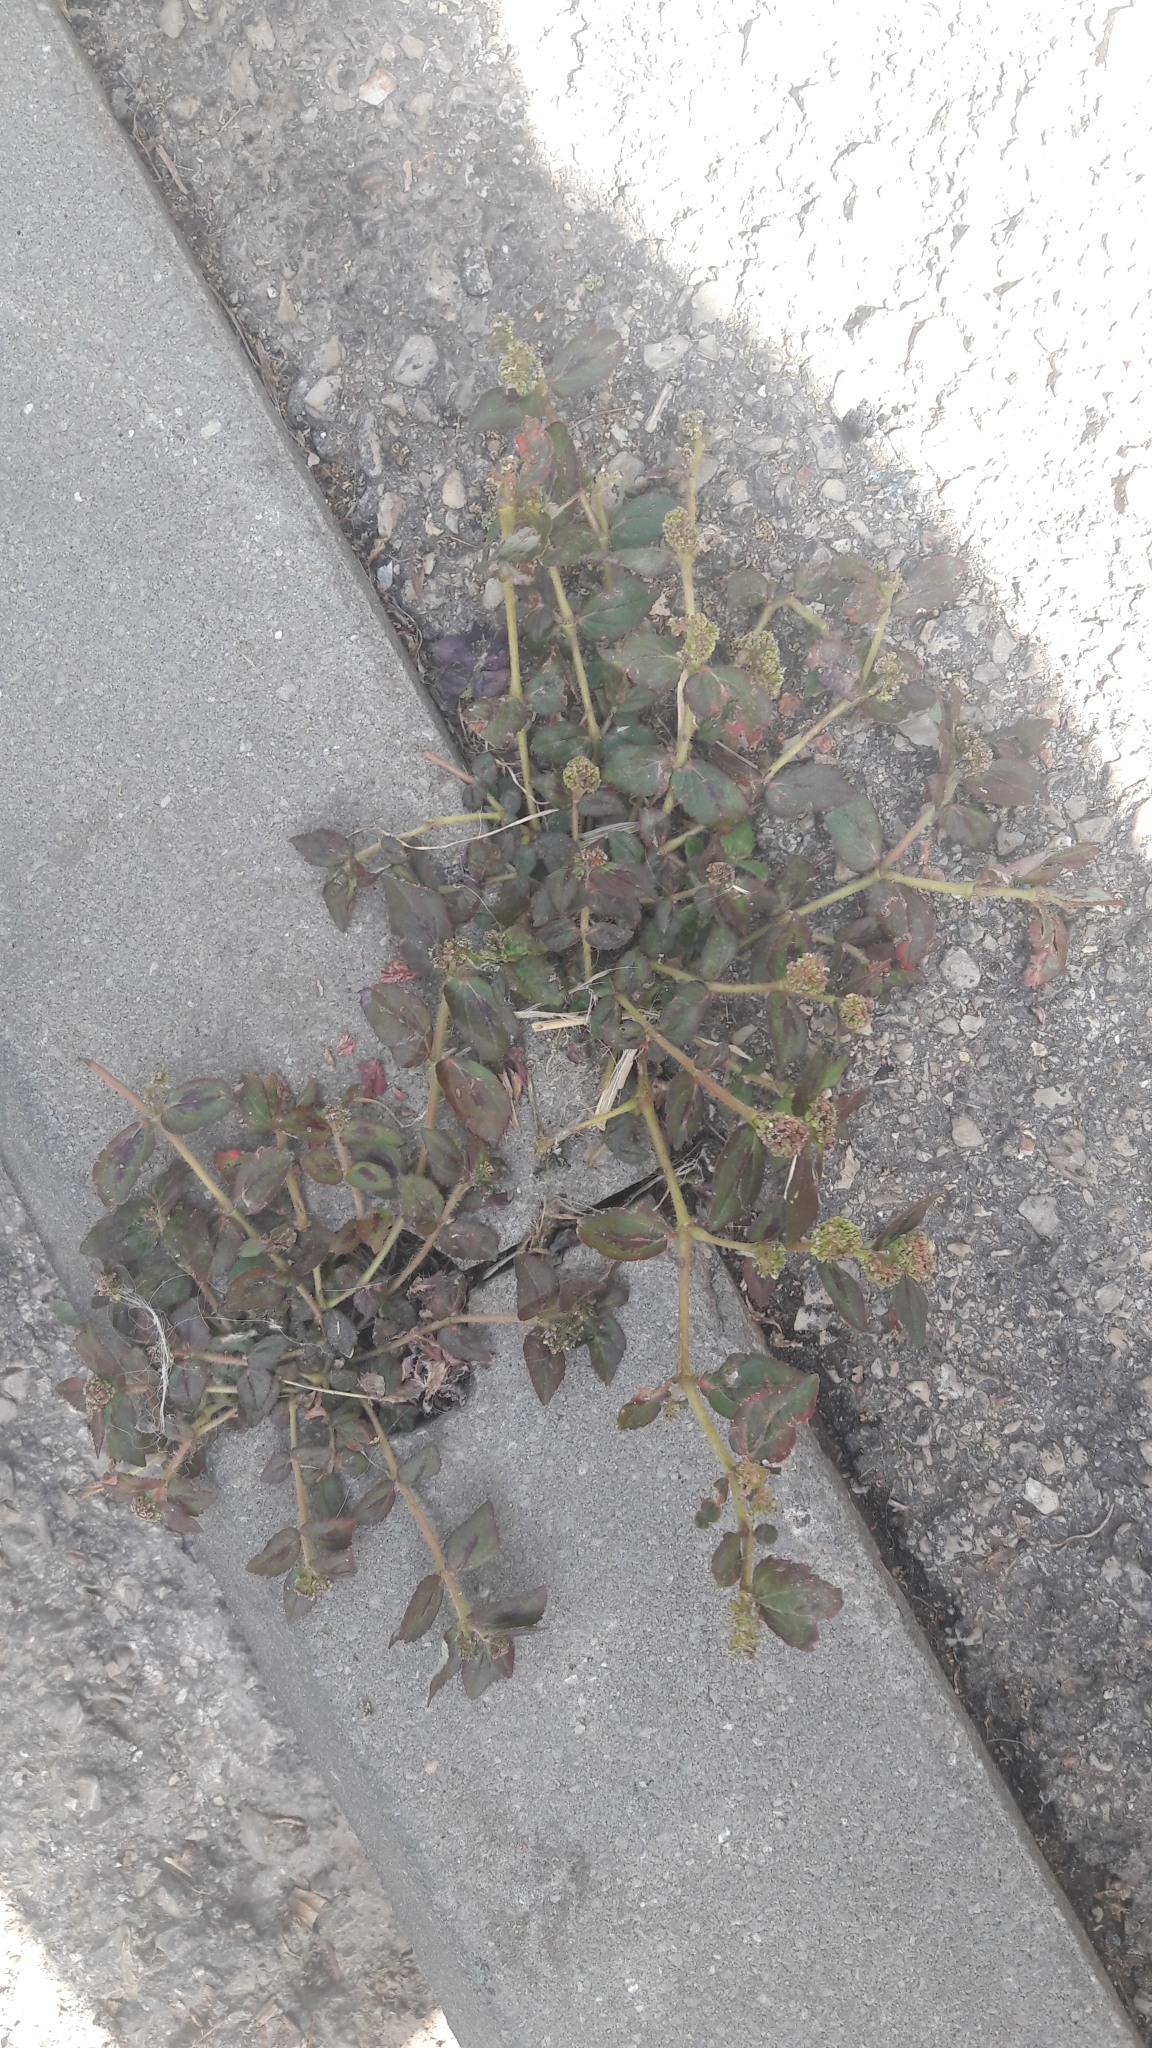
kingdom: Plantae
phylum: Tracheophyta
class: Magnoliopsida
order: Malpighiales
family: Euphorbiaceae
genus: Euphorbia
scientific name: Euphorbia prostrata
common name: Prostrate sandmat
